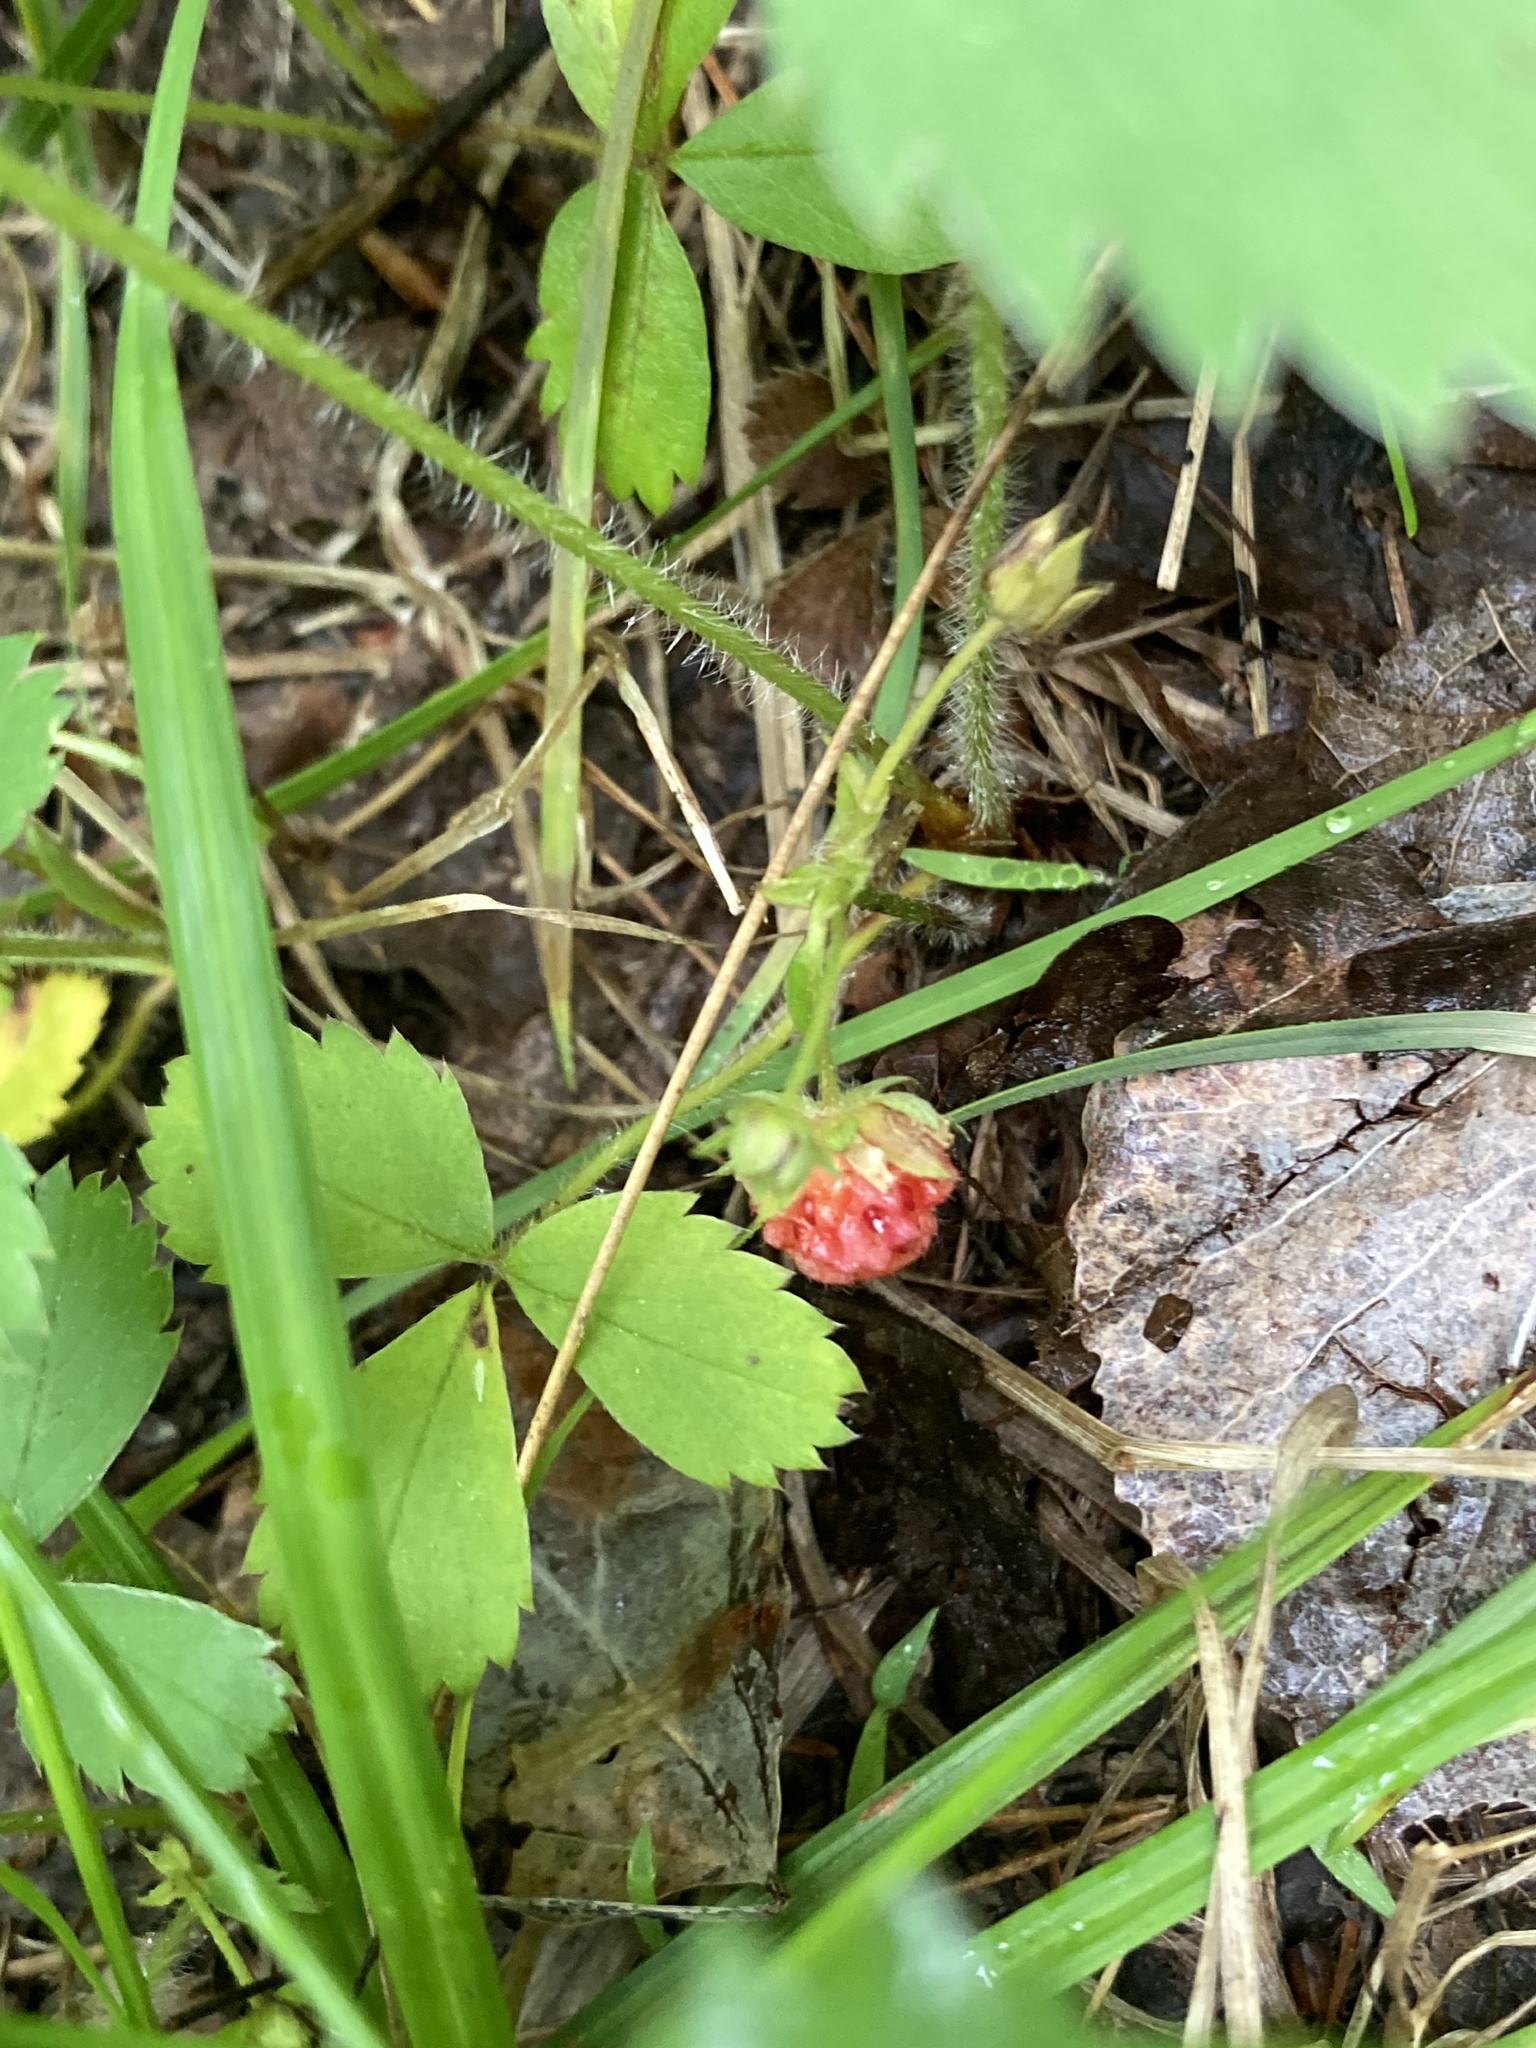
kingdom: Plantae
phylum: Tracheophyta
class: Magnoliopsida
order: Rosales
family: Rosaceae
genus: Fragaria
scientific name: Fragaria virginiana
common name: Thickleaved wild strawberry
